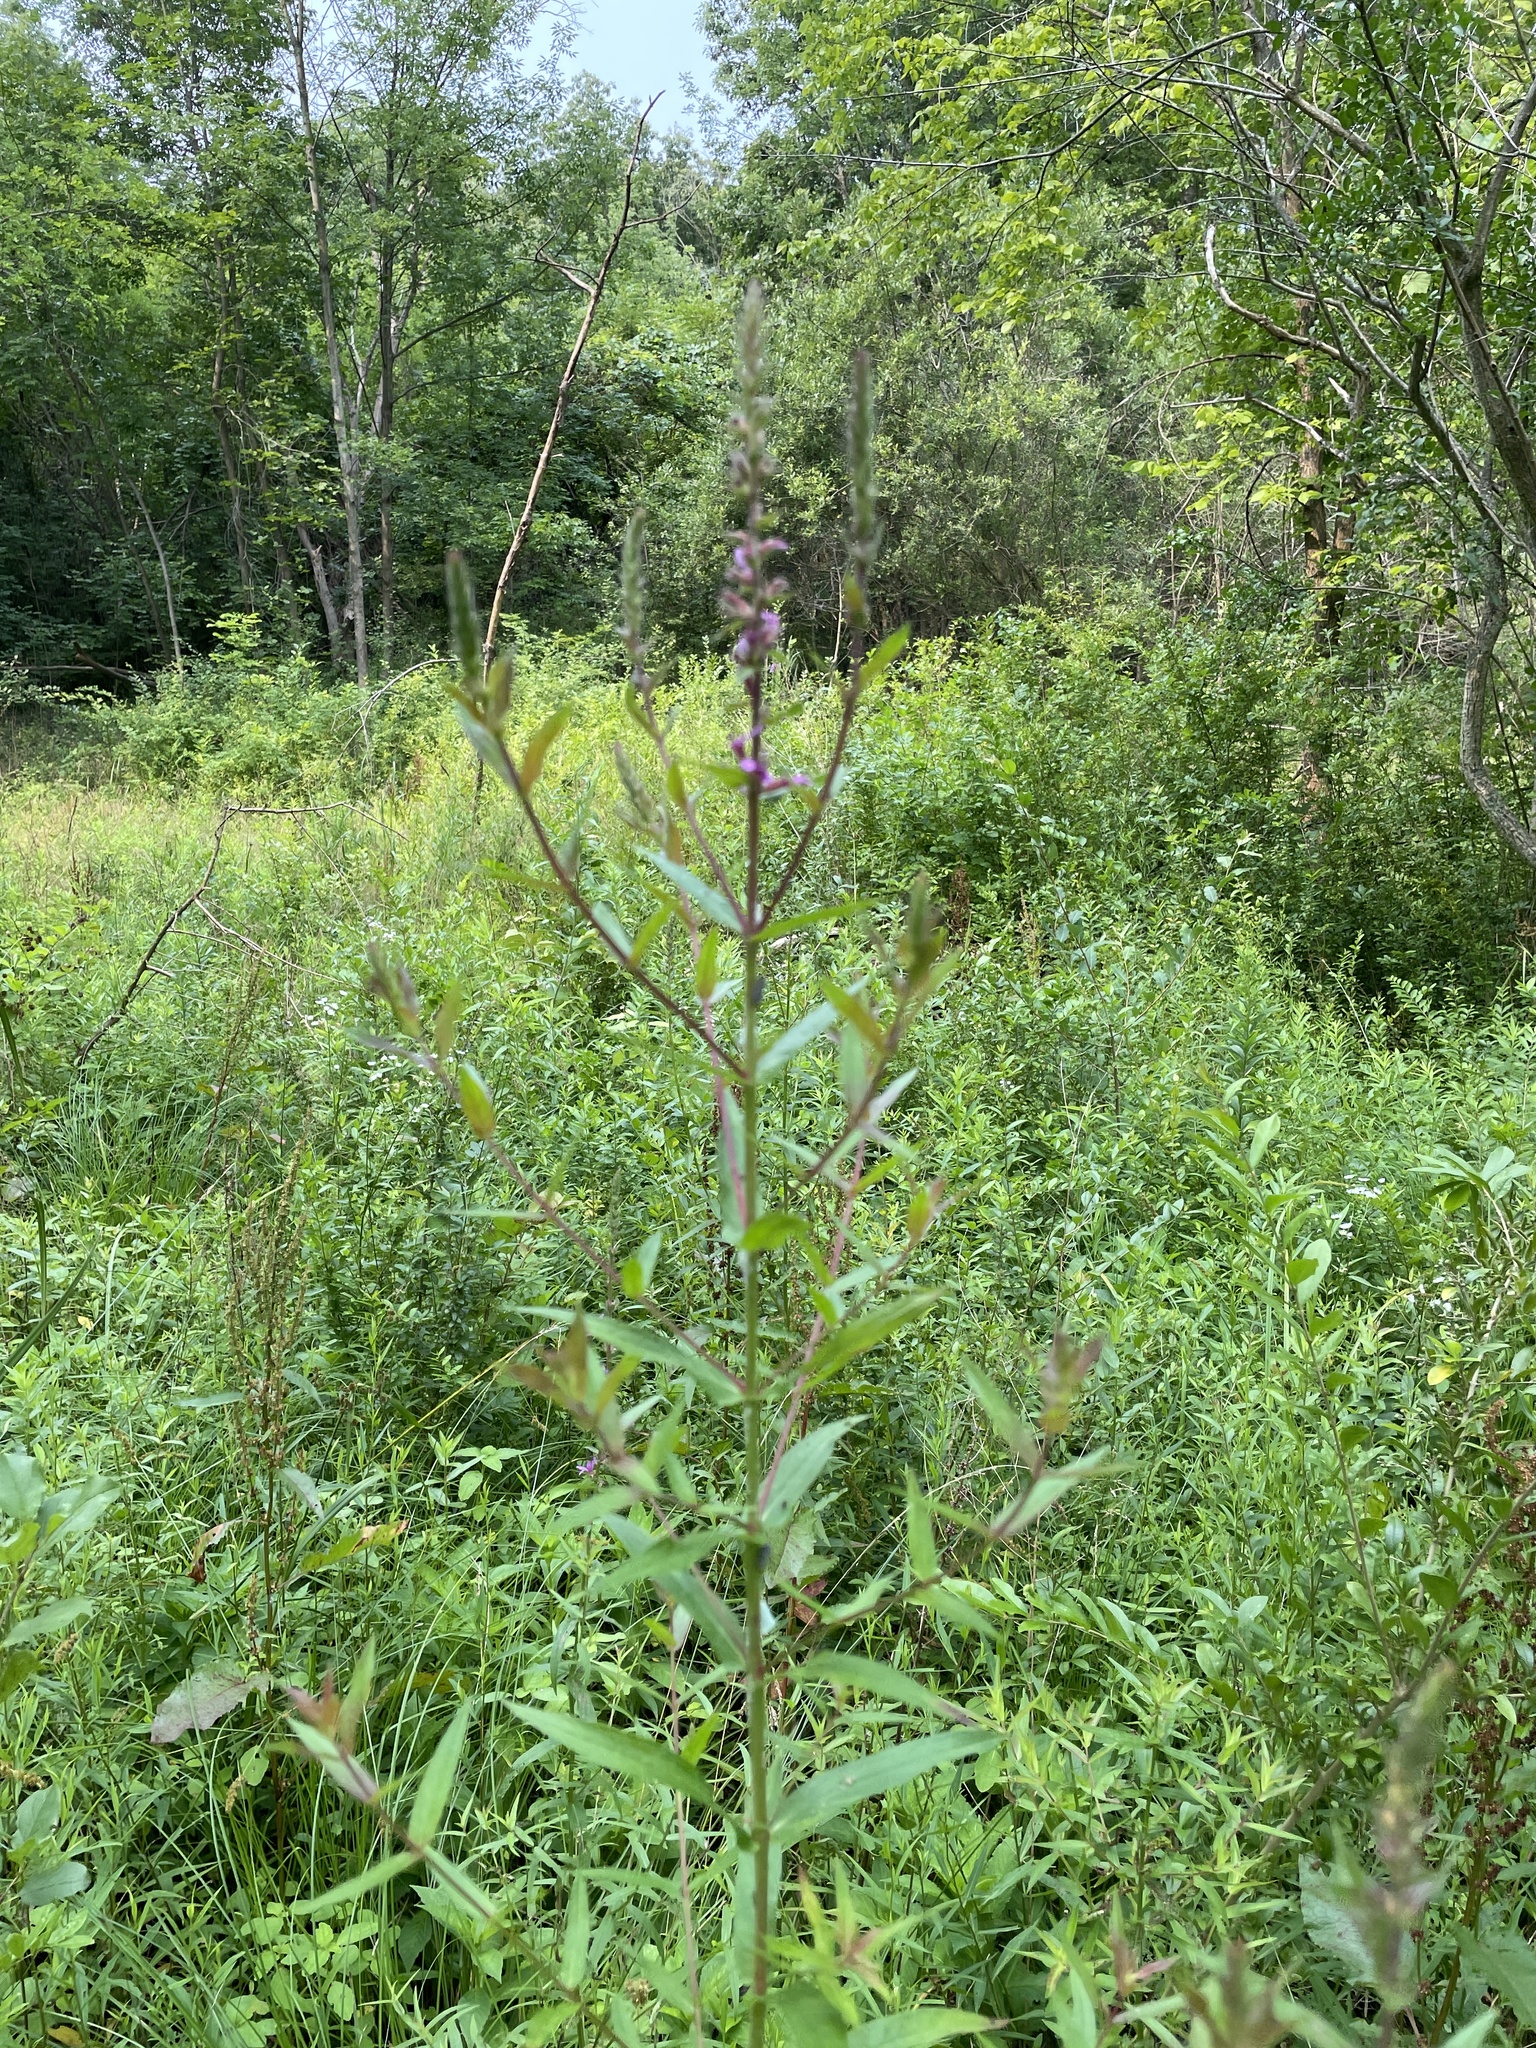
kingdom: Plantae
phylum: Tracheophyta
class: Magnoliopsida
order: Myrtales
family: Lythraceae
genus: Lythrum
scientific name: Lythrum salicaria
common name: Purple loosestrife
